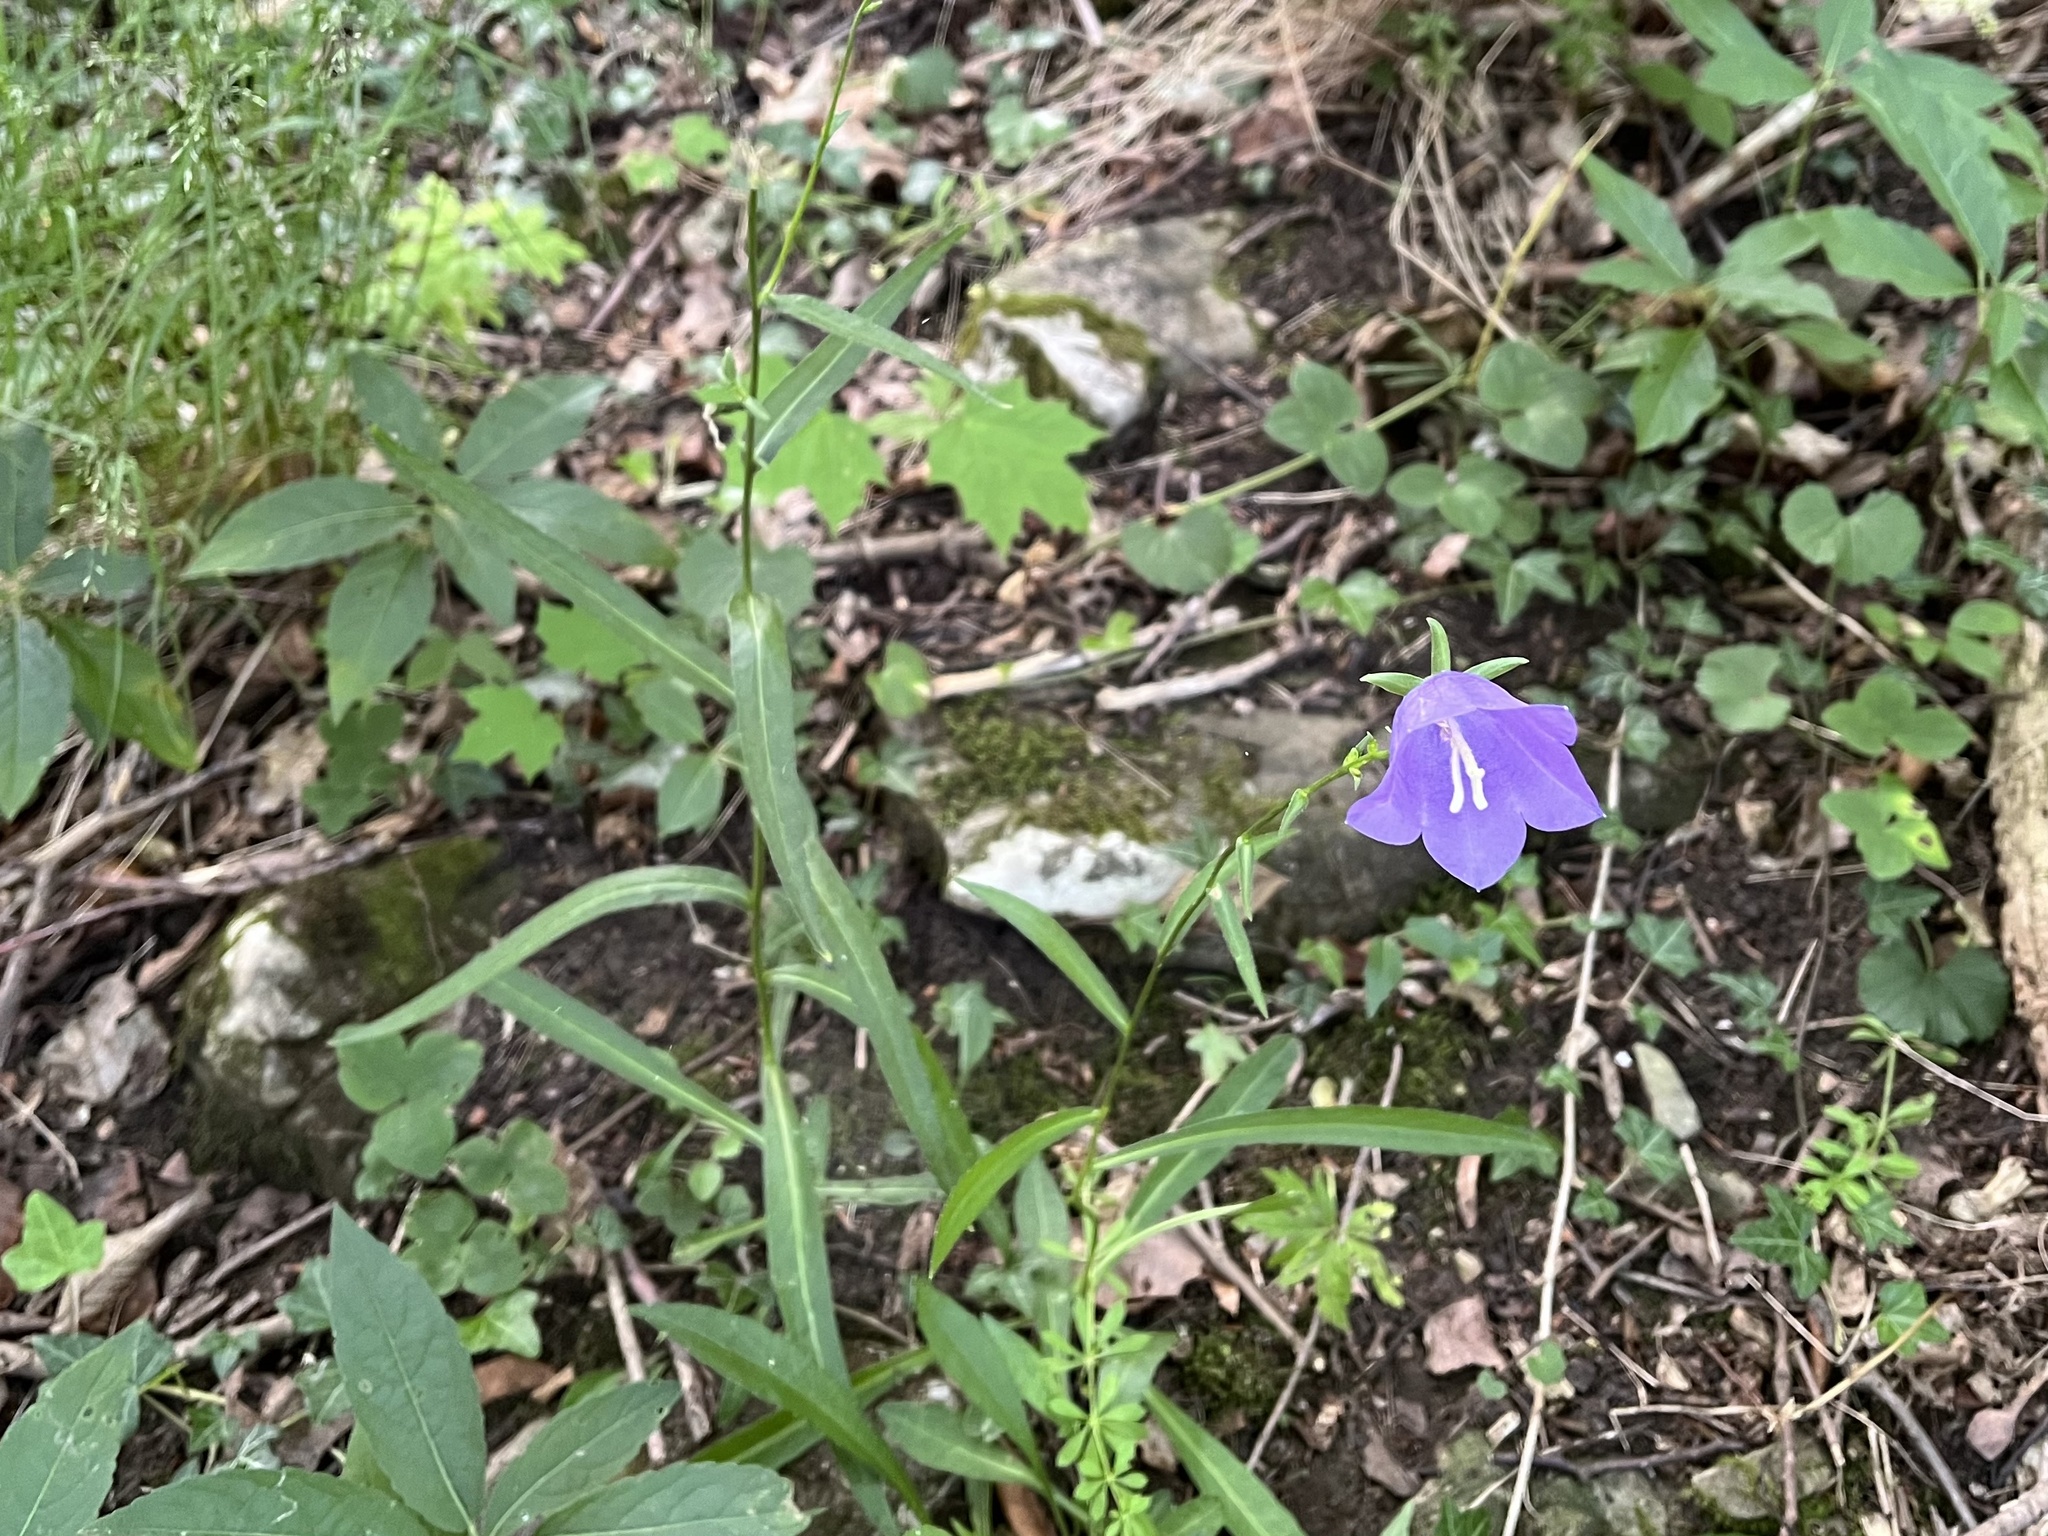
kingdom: Plantae
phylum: Tracheophyta
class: Magnoliopsida
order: Asterales
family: Campanulaceae
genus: Campanula
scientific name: Campanula persicifolia
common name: Peach-leaved bellflower
